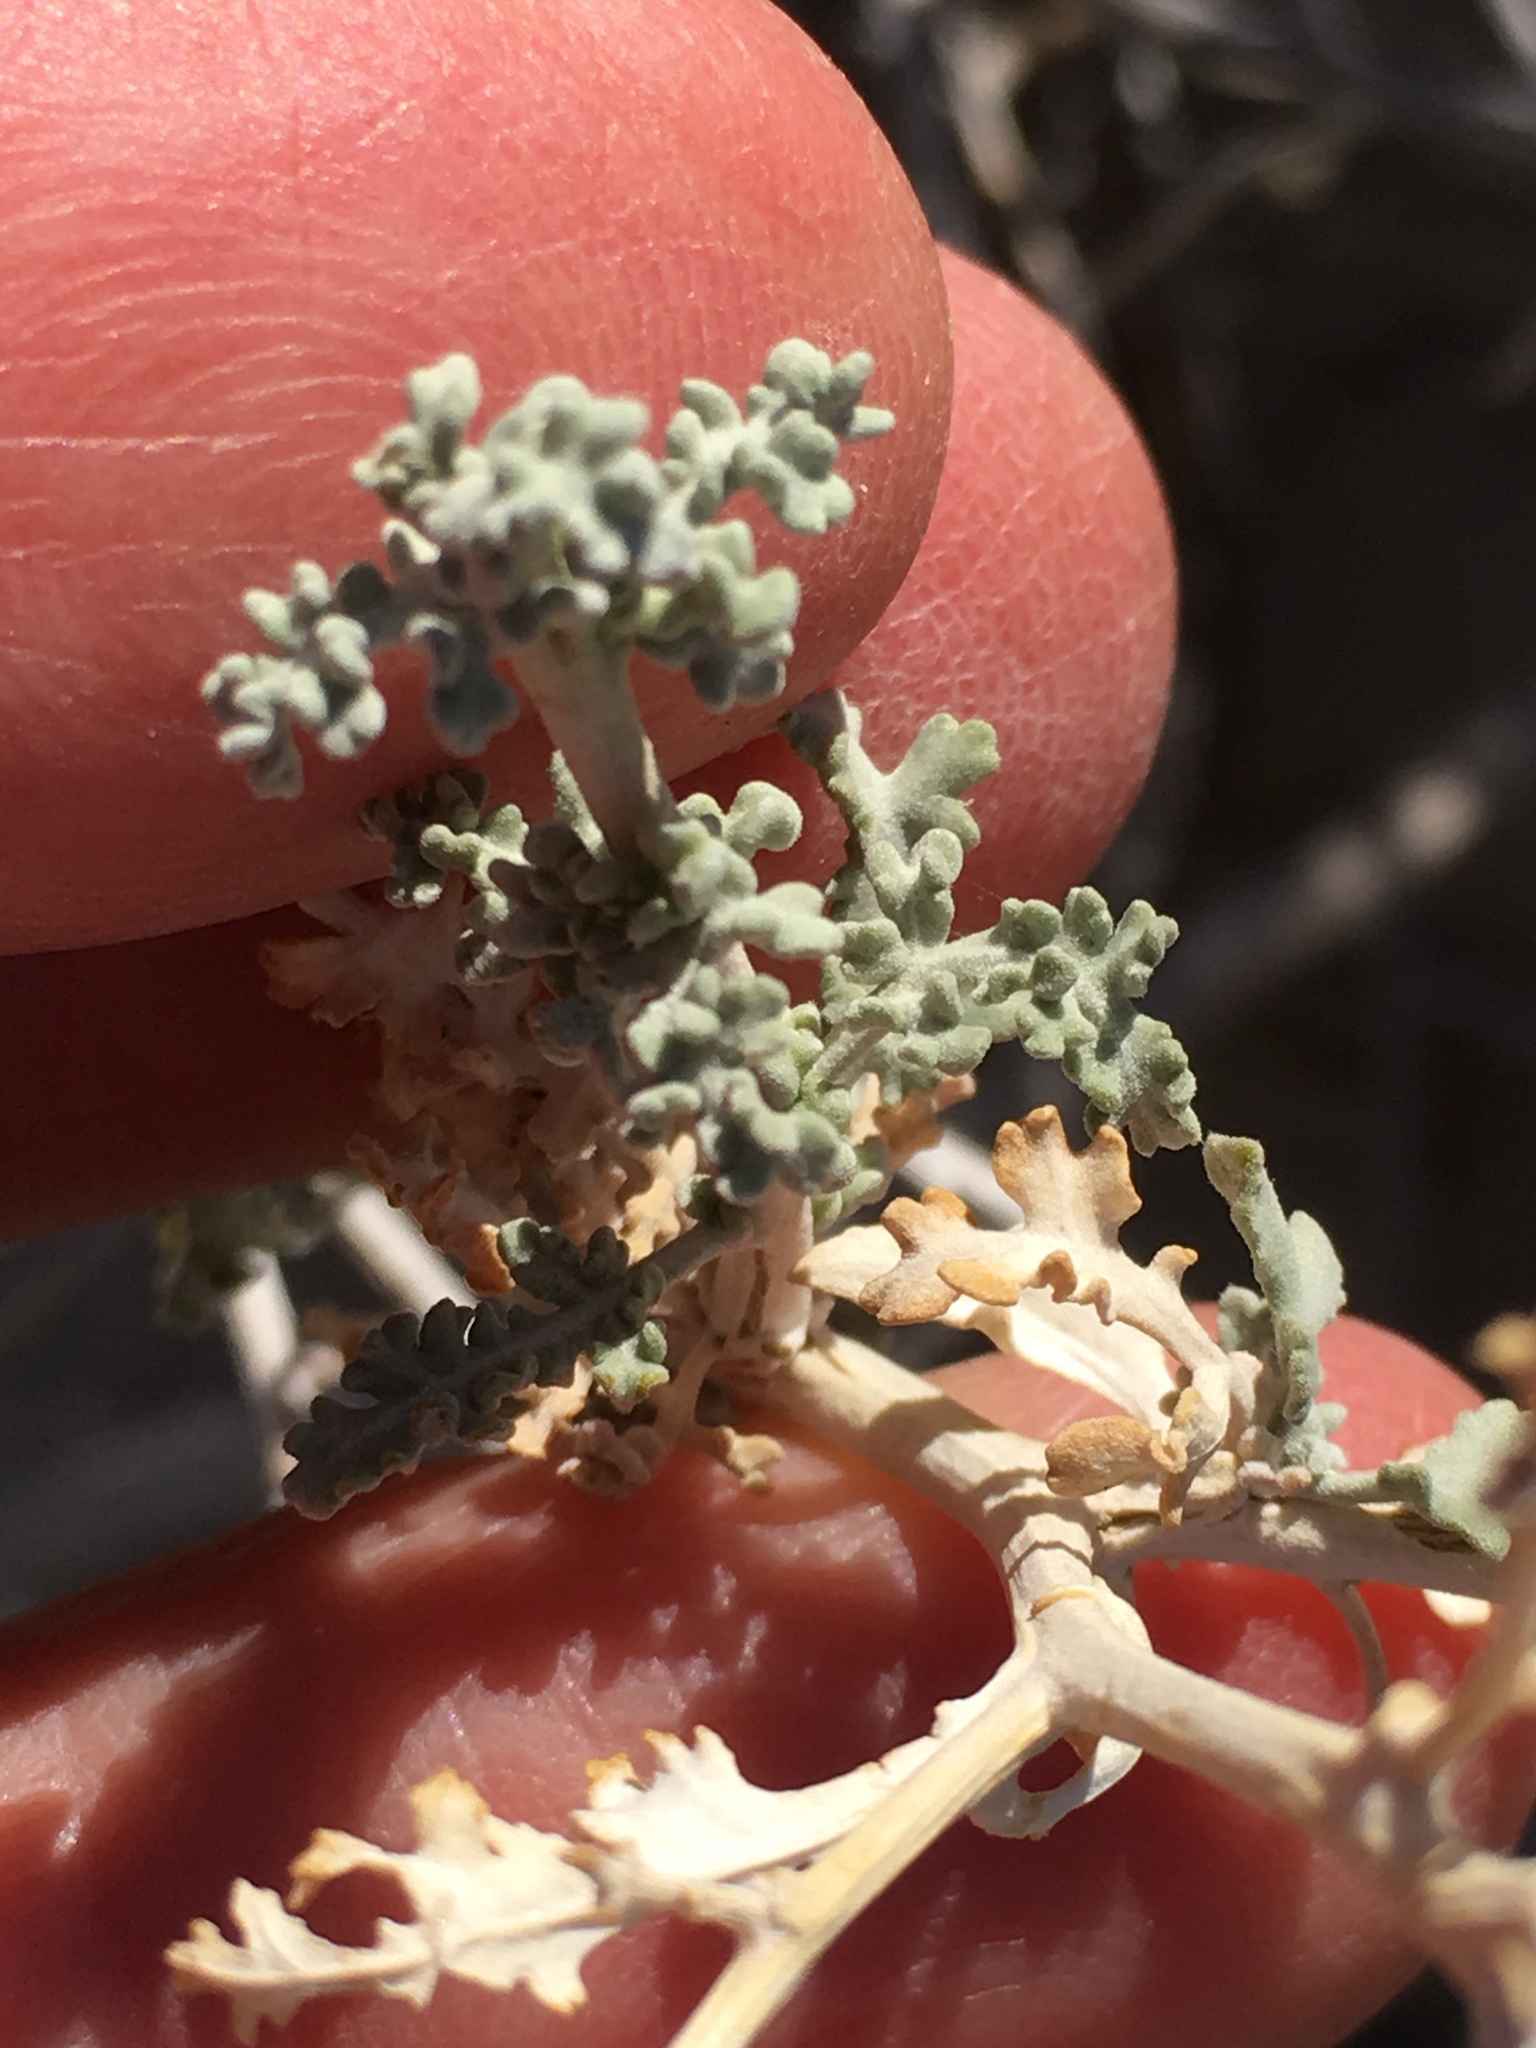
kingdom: Plantae
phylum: Tracheophyta
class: Magnoliopsida
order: Asterales
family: Asteraceae
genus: Ambrosia
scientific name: Ambrosia dumosa
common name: Bur-sage
